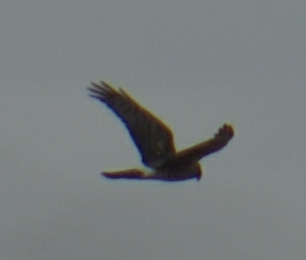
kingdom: Animalia
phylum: Chordata
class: Aves
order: Accipitriformes
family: Accipitridae
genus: Circus
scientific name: Circus cyaneus
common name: Hen harrier
